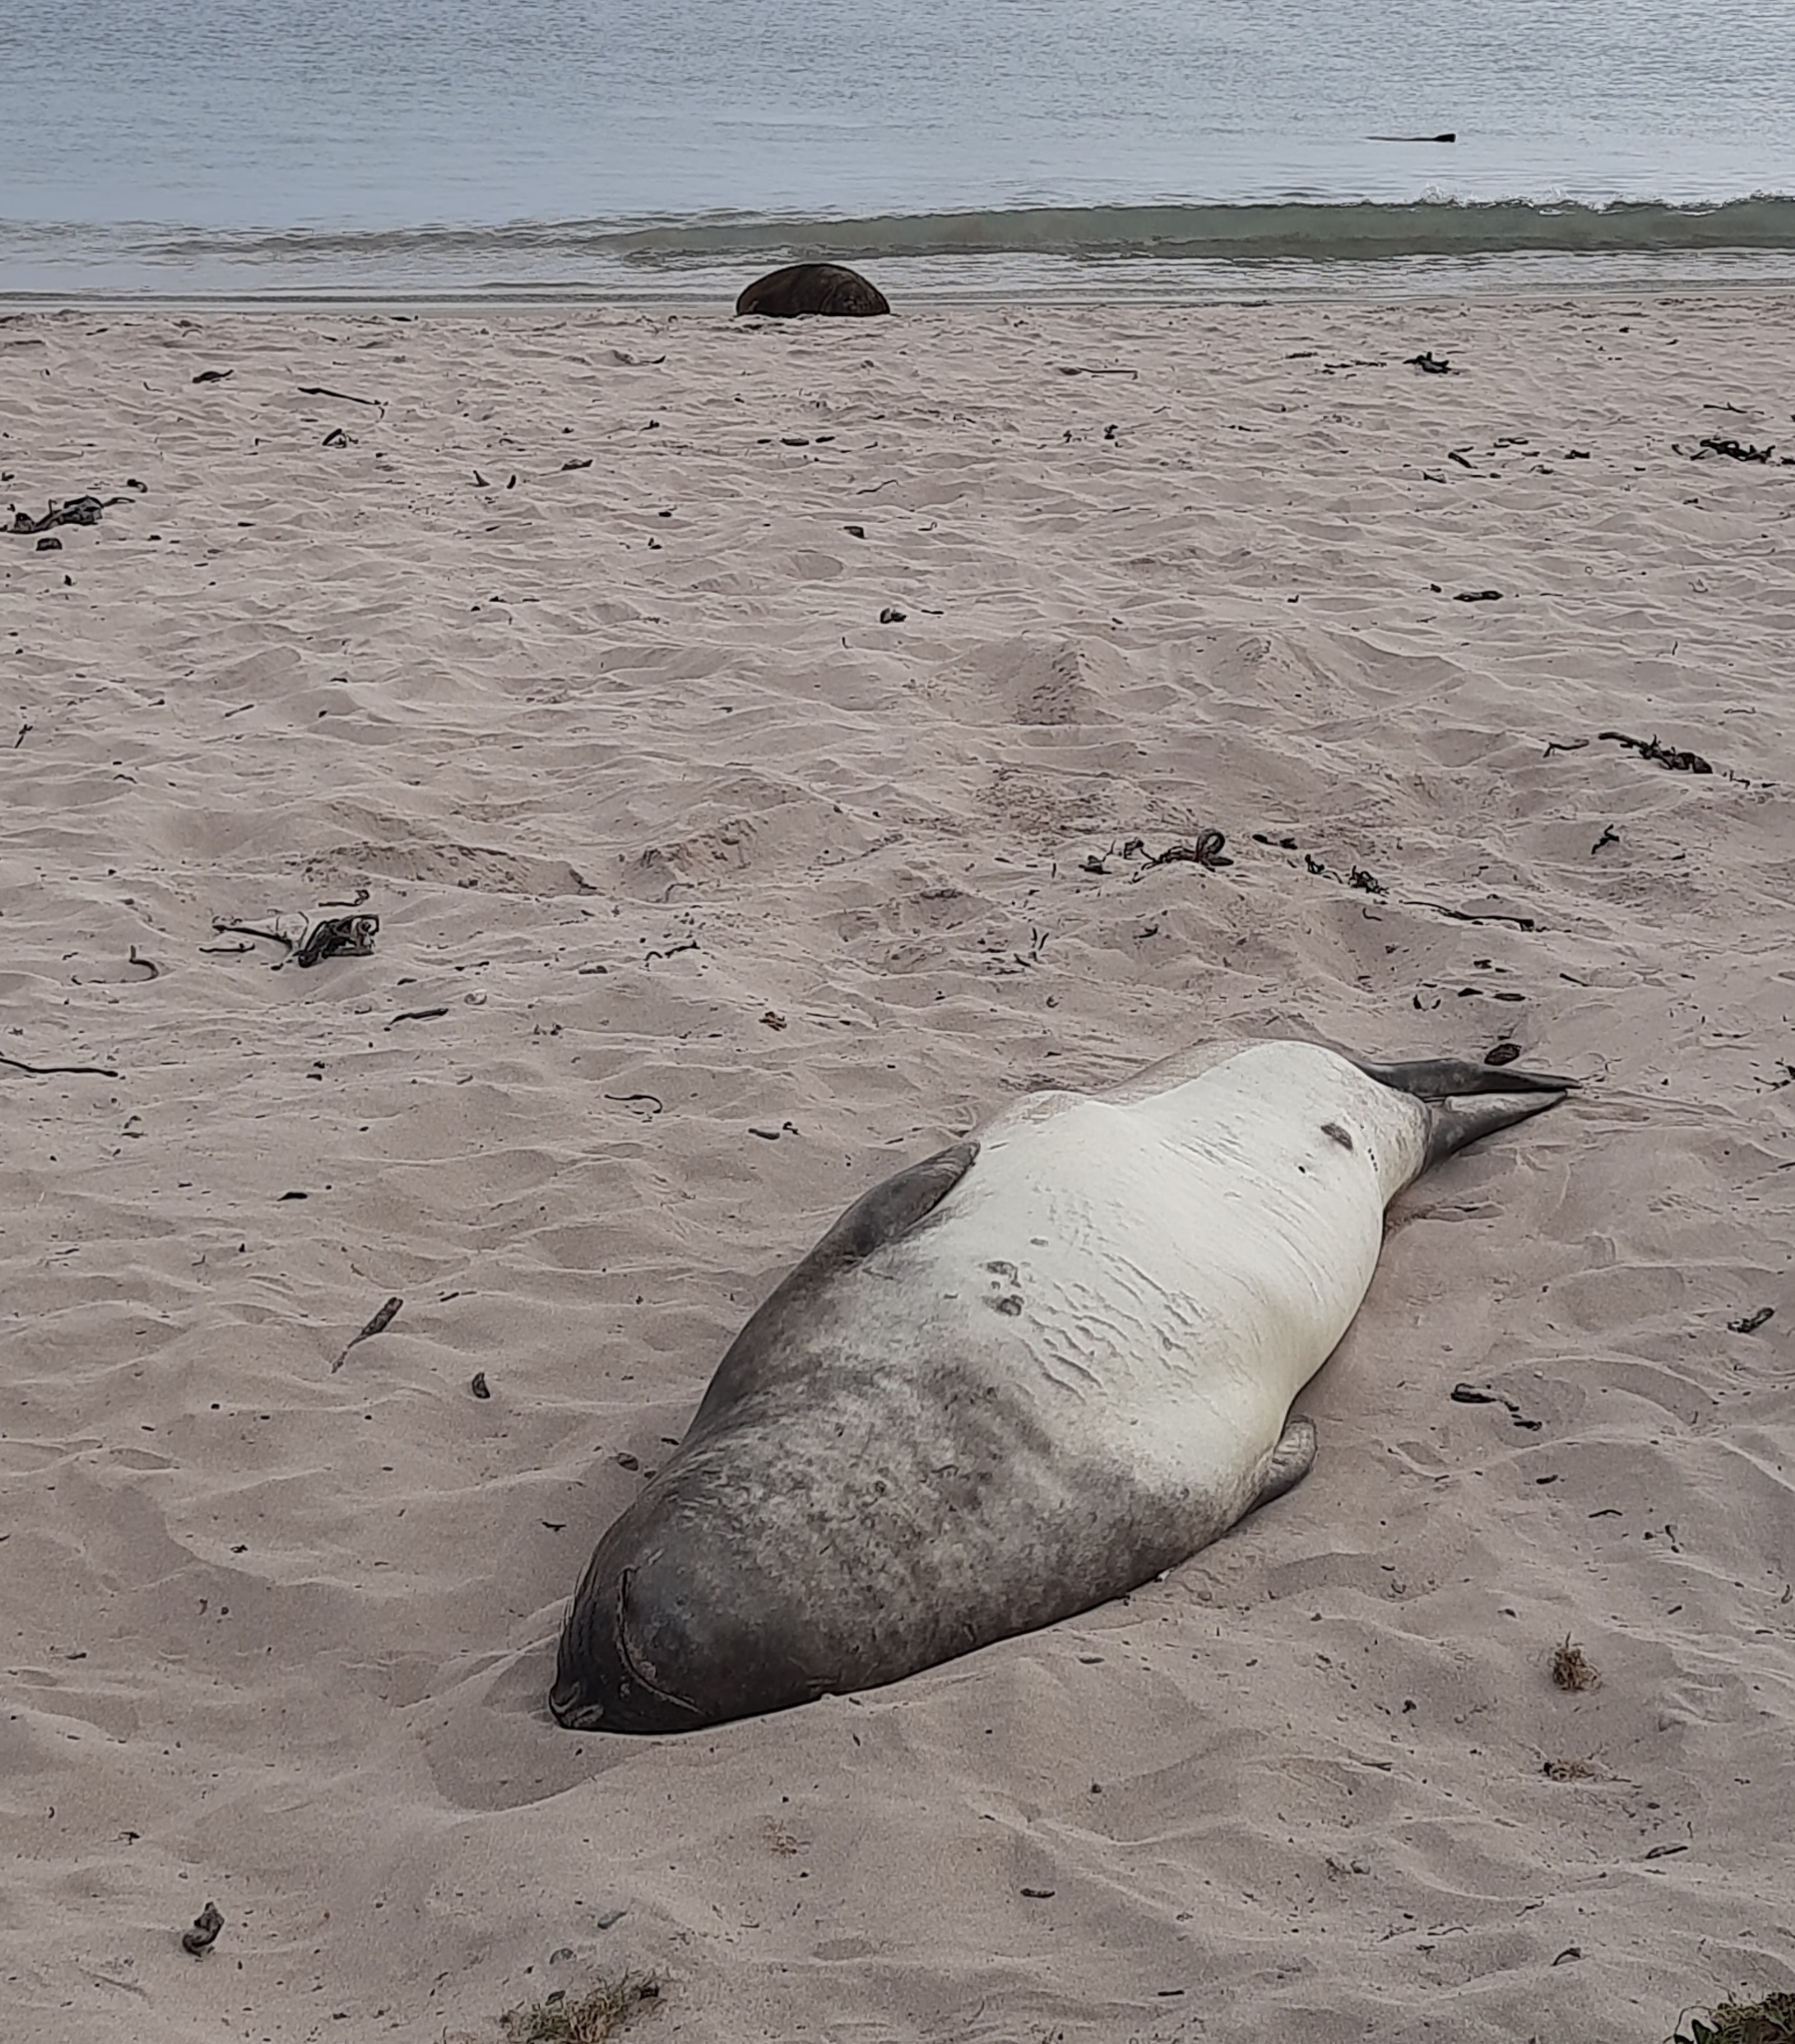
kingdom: Animalia
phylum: Chordata
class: Mammalia
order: Carnivora
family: Phocidae
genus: Mirounga
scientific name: Mirounga leonina
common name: Southern elephant seal
